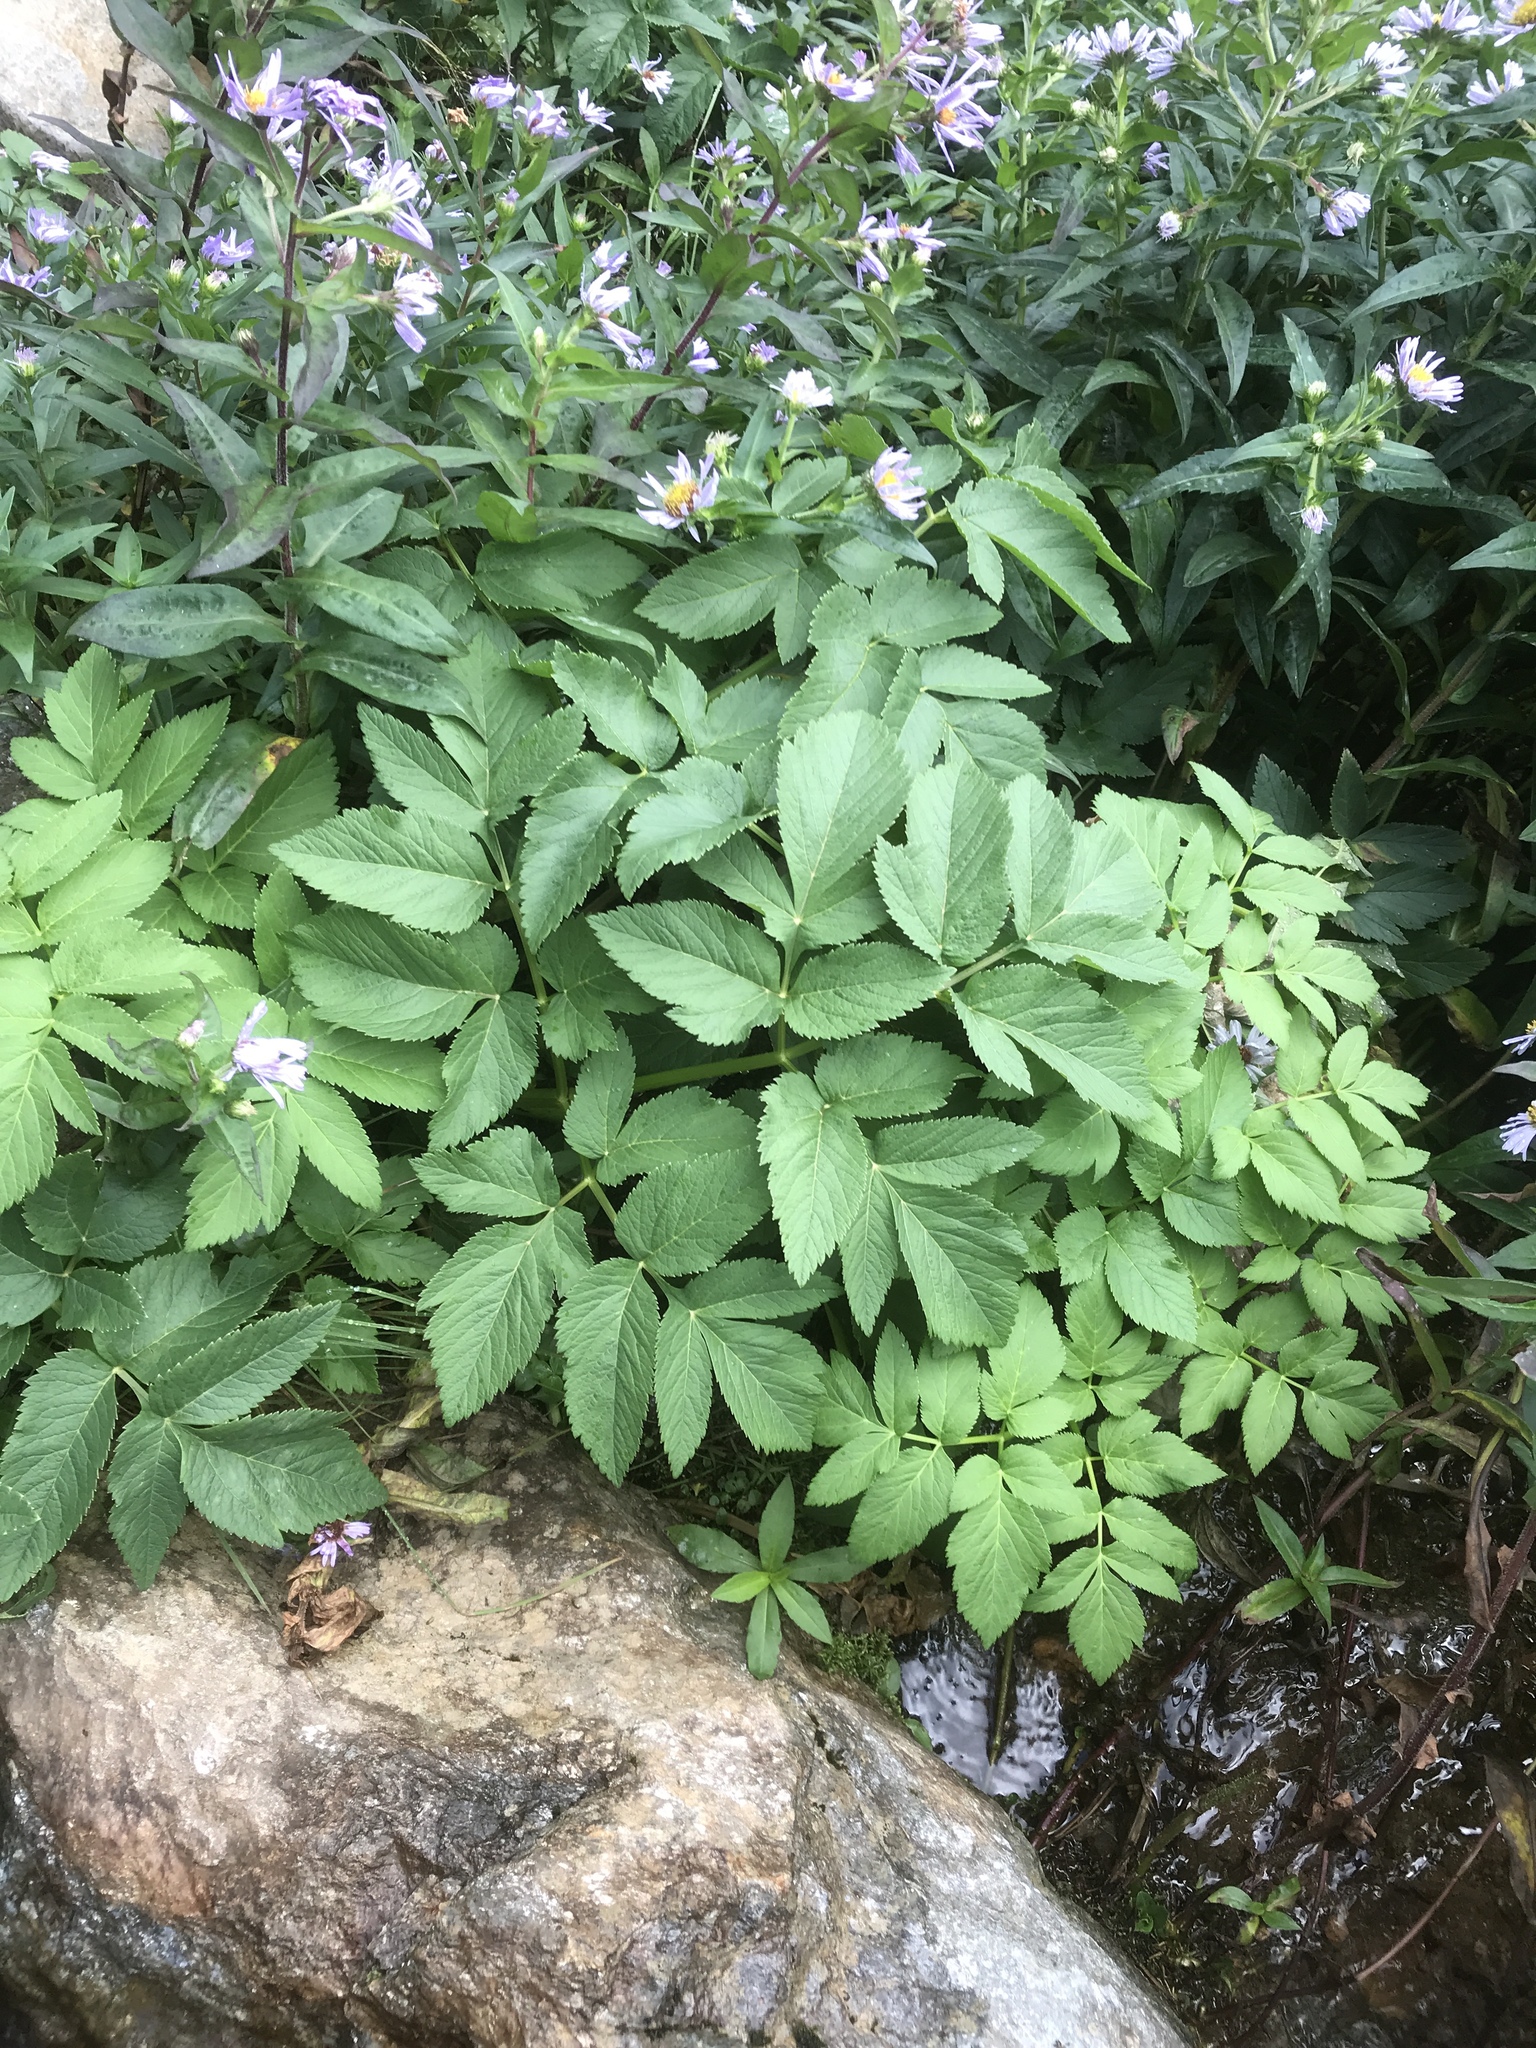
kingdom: Plantae
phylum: Tracheophyta
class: Magnoliopsida
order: Apiales
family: Apiaceae
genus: Angelica
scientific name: Angelica atropurpurea
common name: Great angelica
